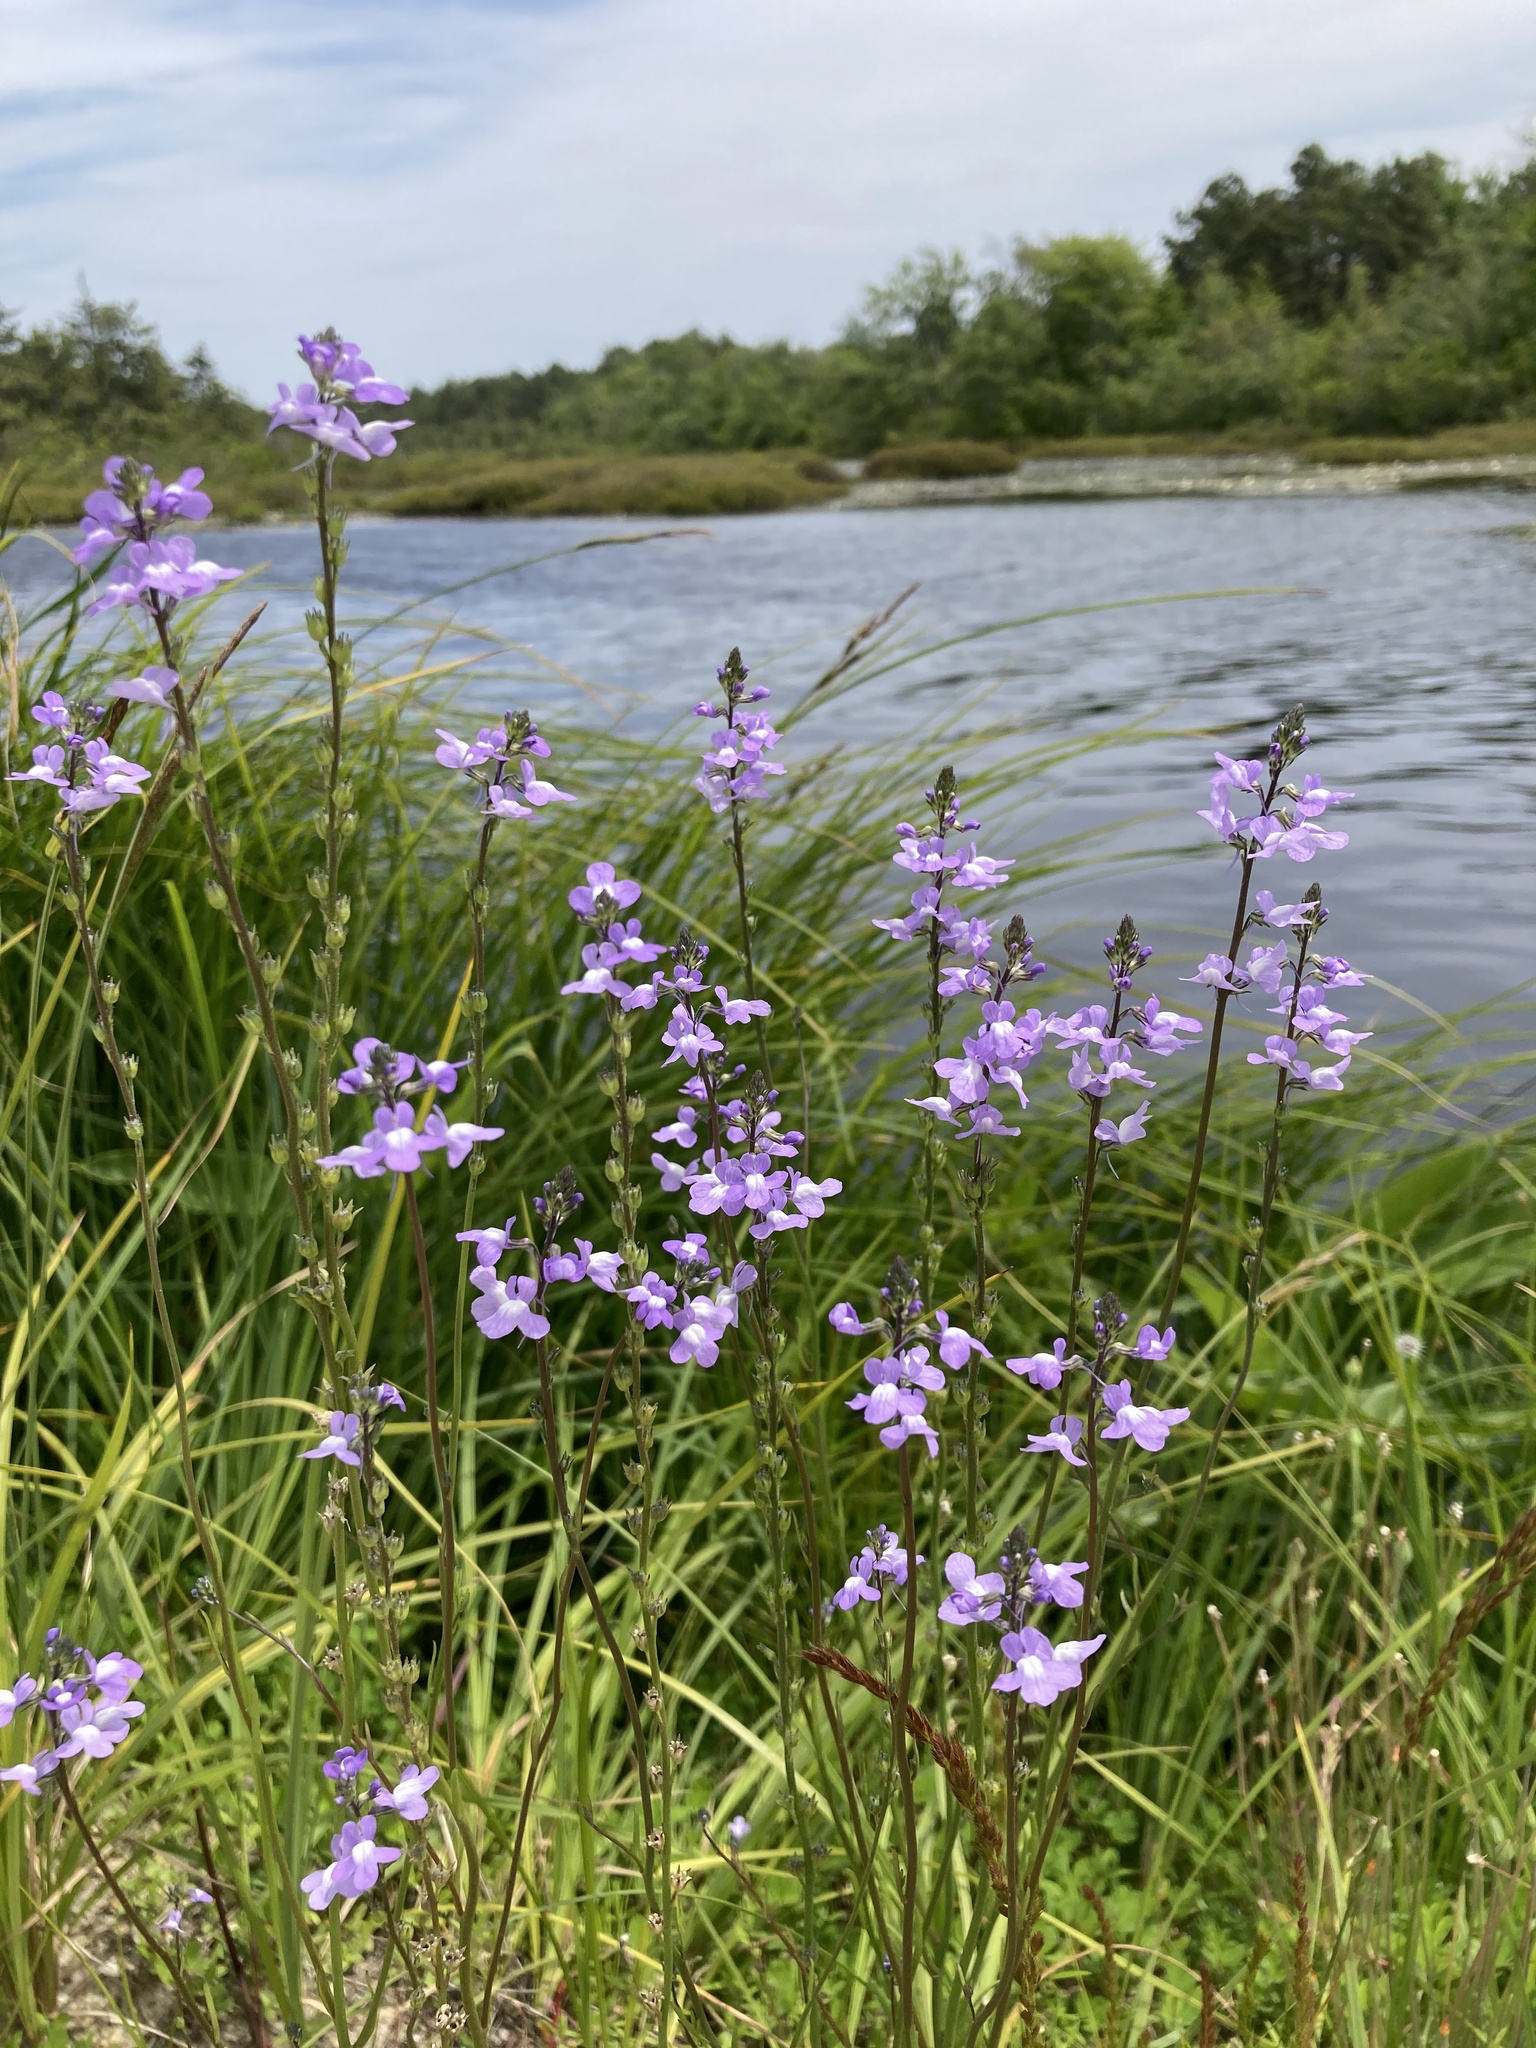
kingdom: Plantae
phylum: Tracheophyta
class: Magnoliopsida
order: Lamiales
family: Plantaginaceae
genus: Nuttallanthus
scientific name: Nuttallanthus canadensis
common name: Blue toadflax
